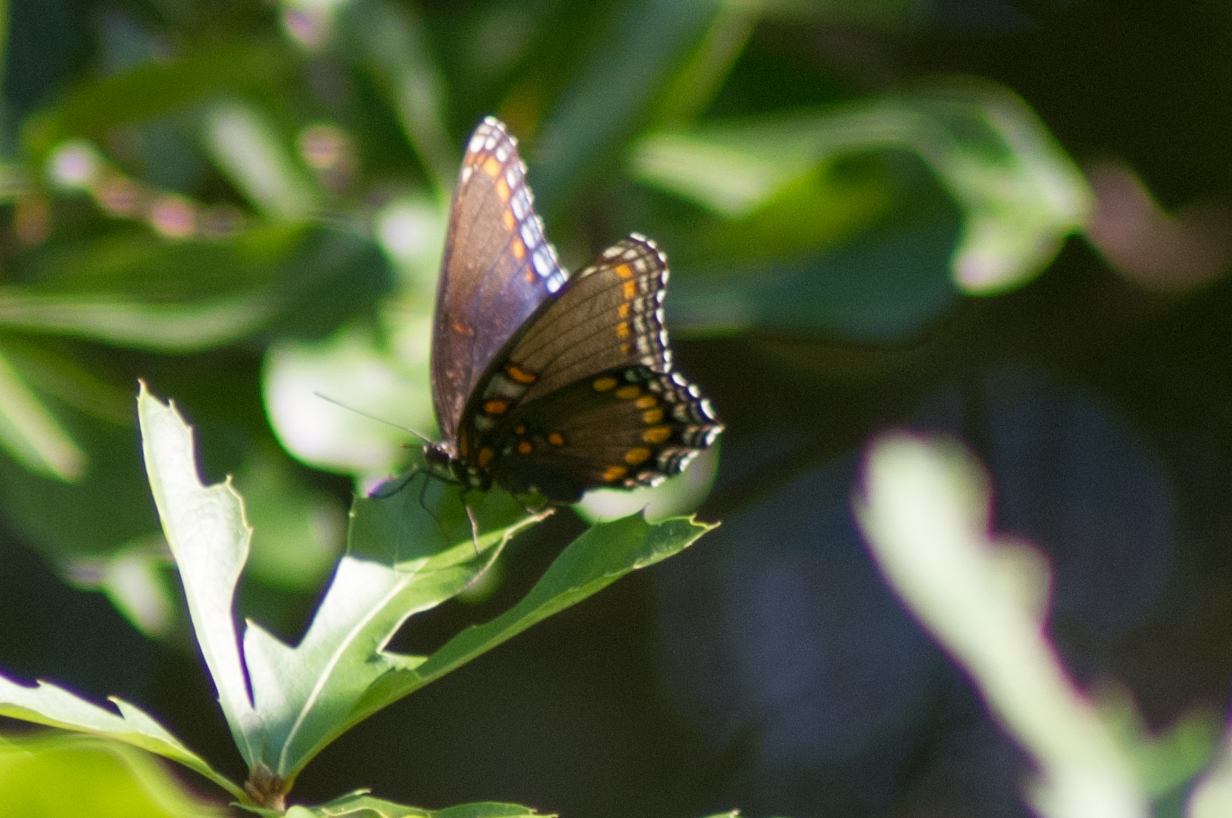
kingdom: Animalia
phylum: Arthropoda
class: Insecta
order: Lepidoptera
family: Nymphalidae
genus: Limenitis
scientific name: Limenitis astyanax
